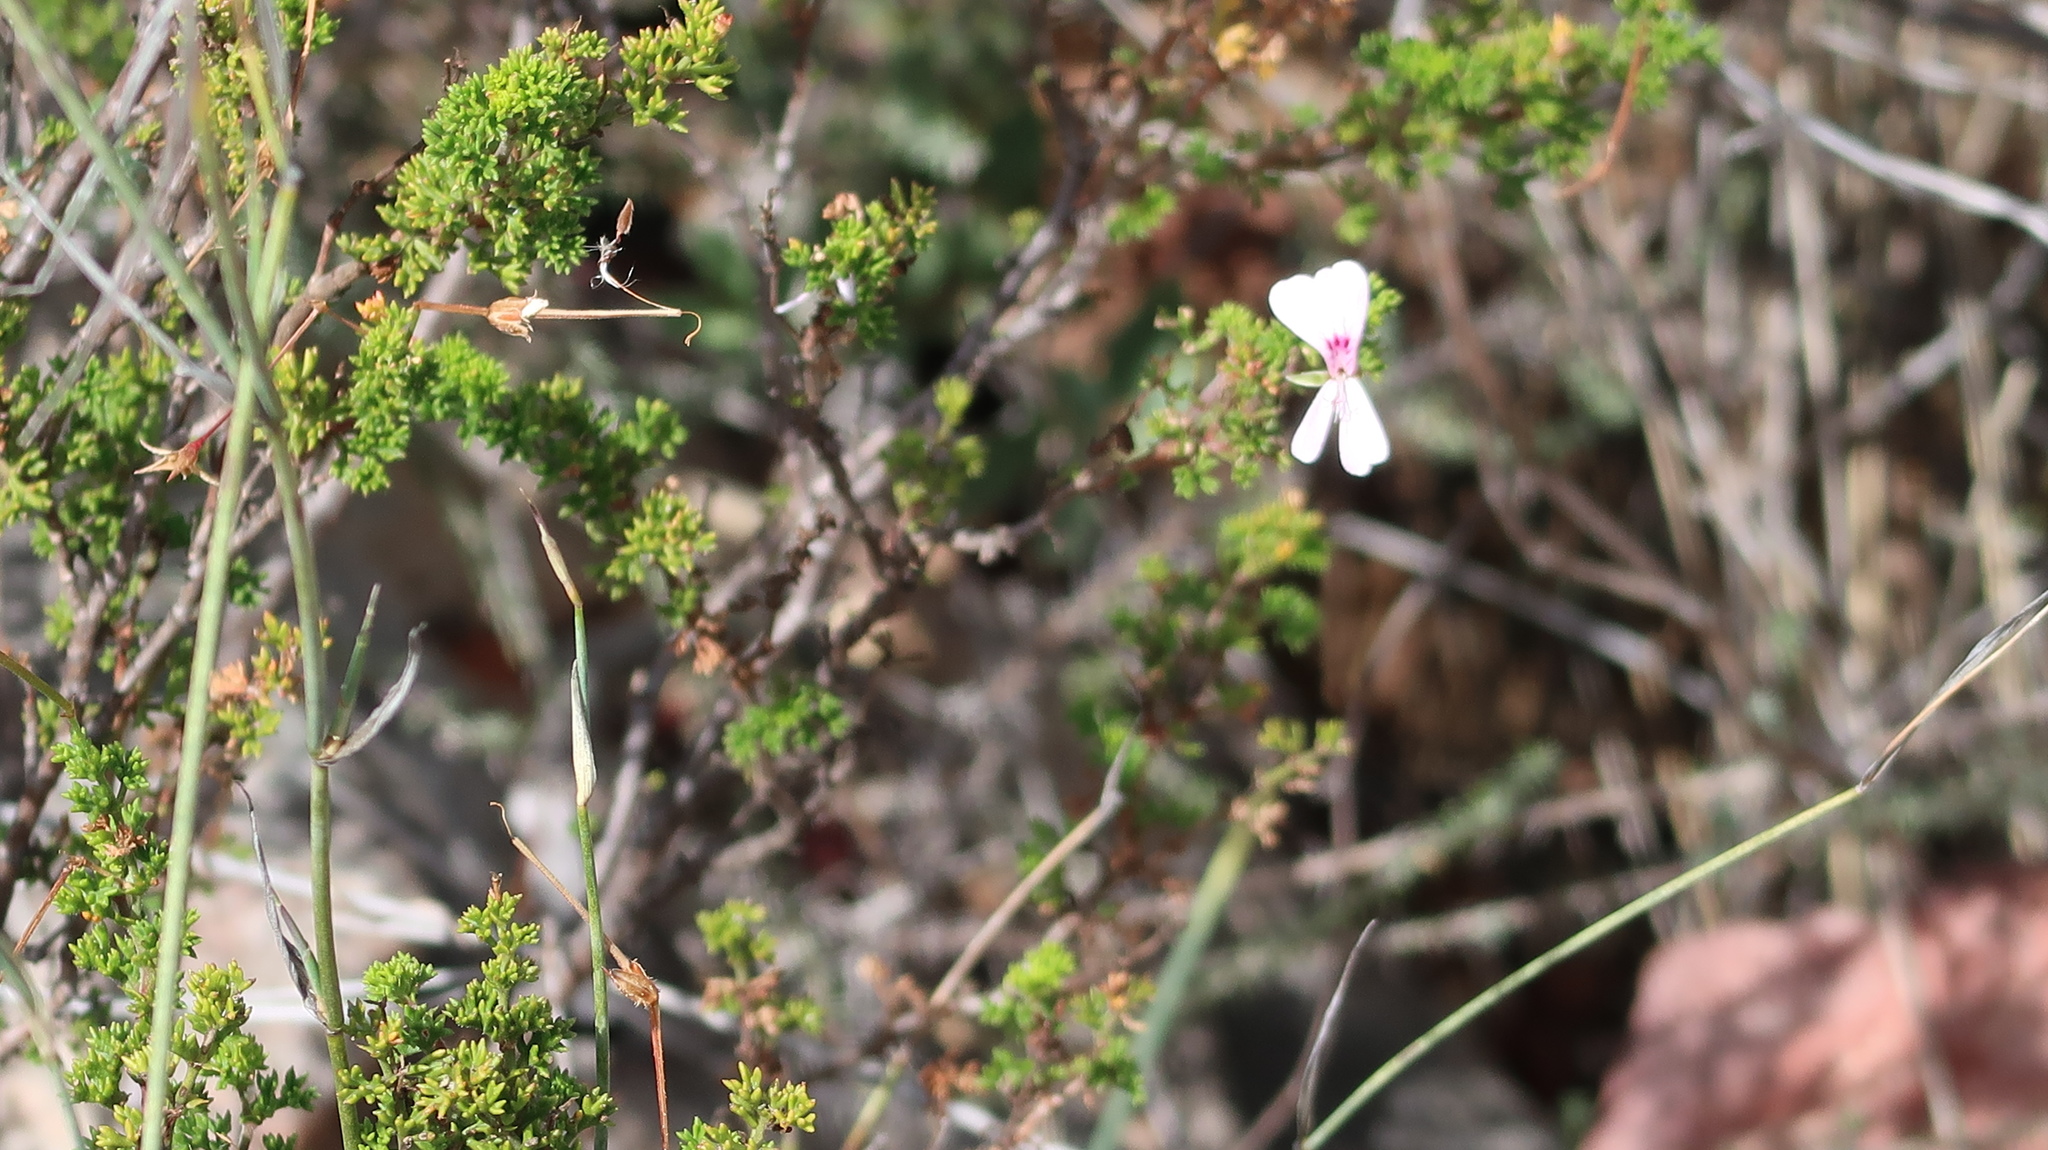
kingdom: Plantae
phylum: Tracheophyta
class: Magnoliopsida
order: Geraniales
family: Geraniaceae
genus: Pelargonium
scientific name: Pelargonium fruticosum
